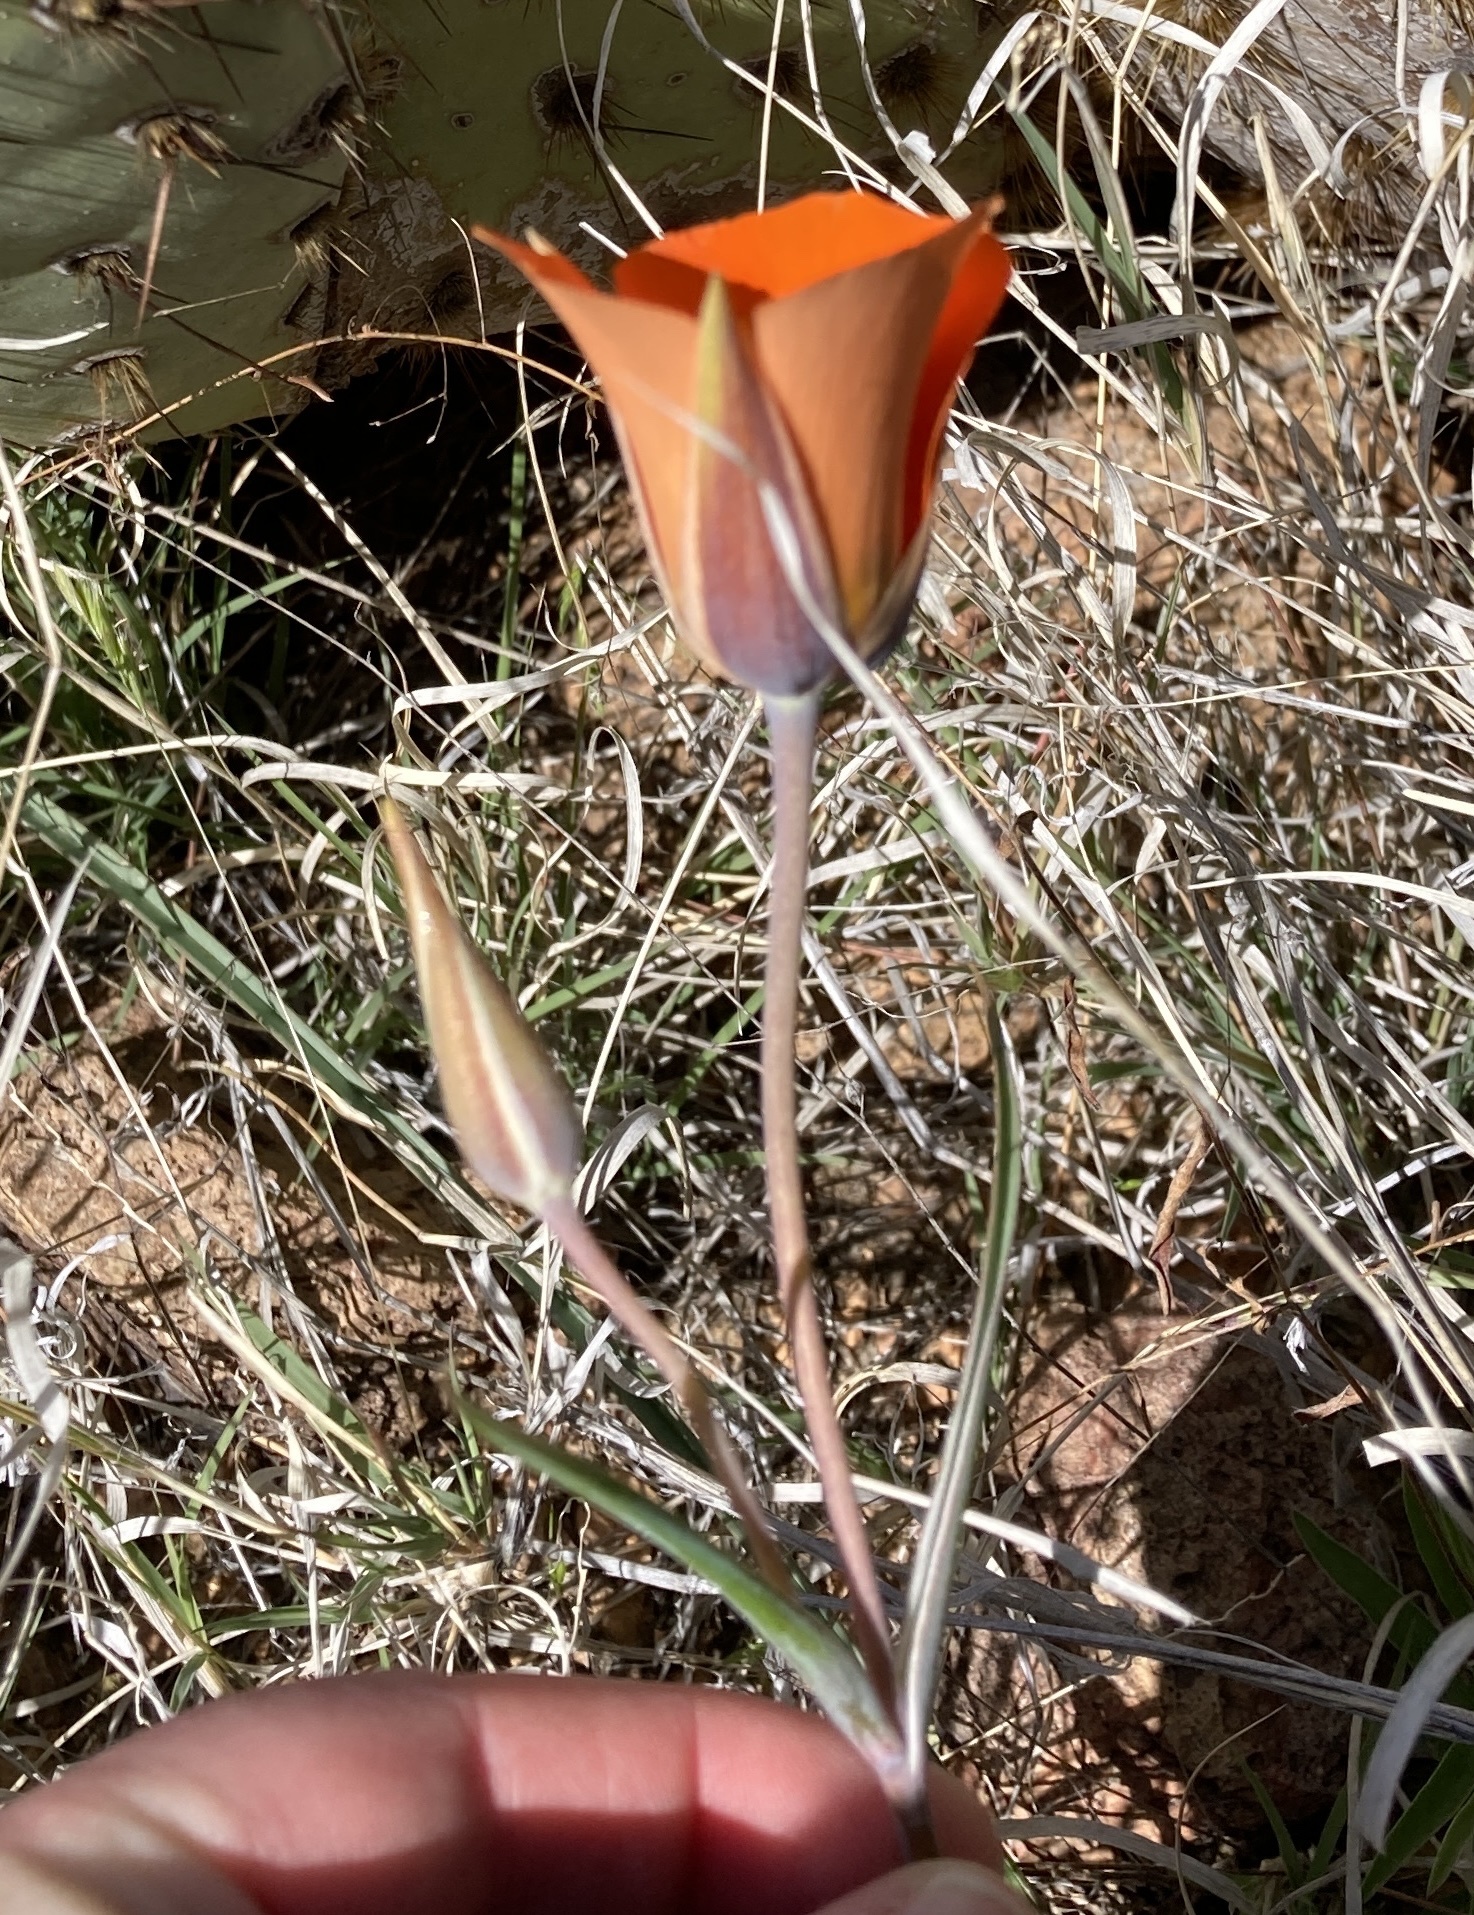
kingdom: Plantae
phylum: Tracheophyta
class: Liliopsida
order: Liliales
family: Liliaceae
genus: Calochortus
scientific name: Calochortus kennedyi
